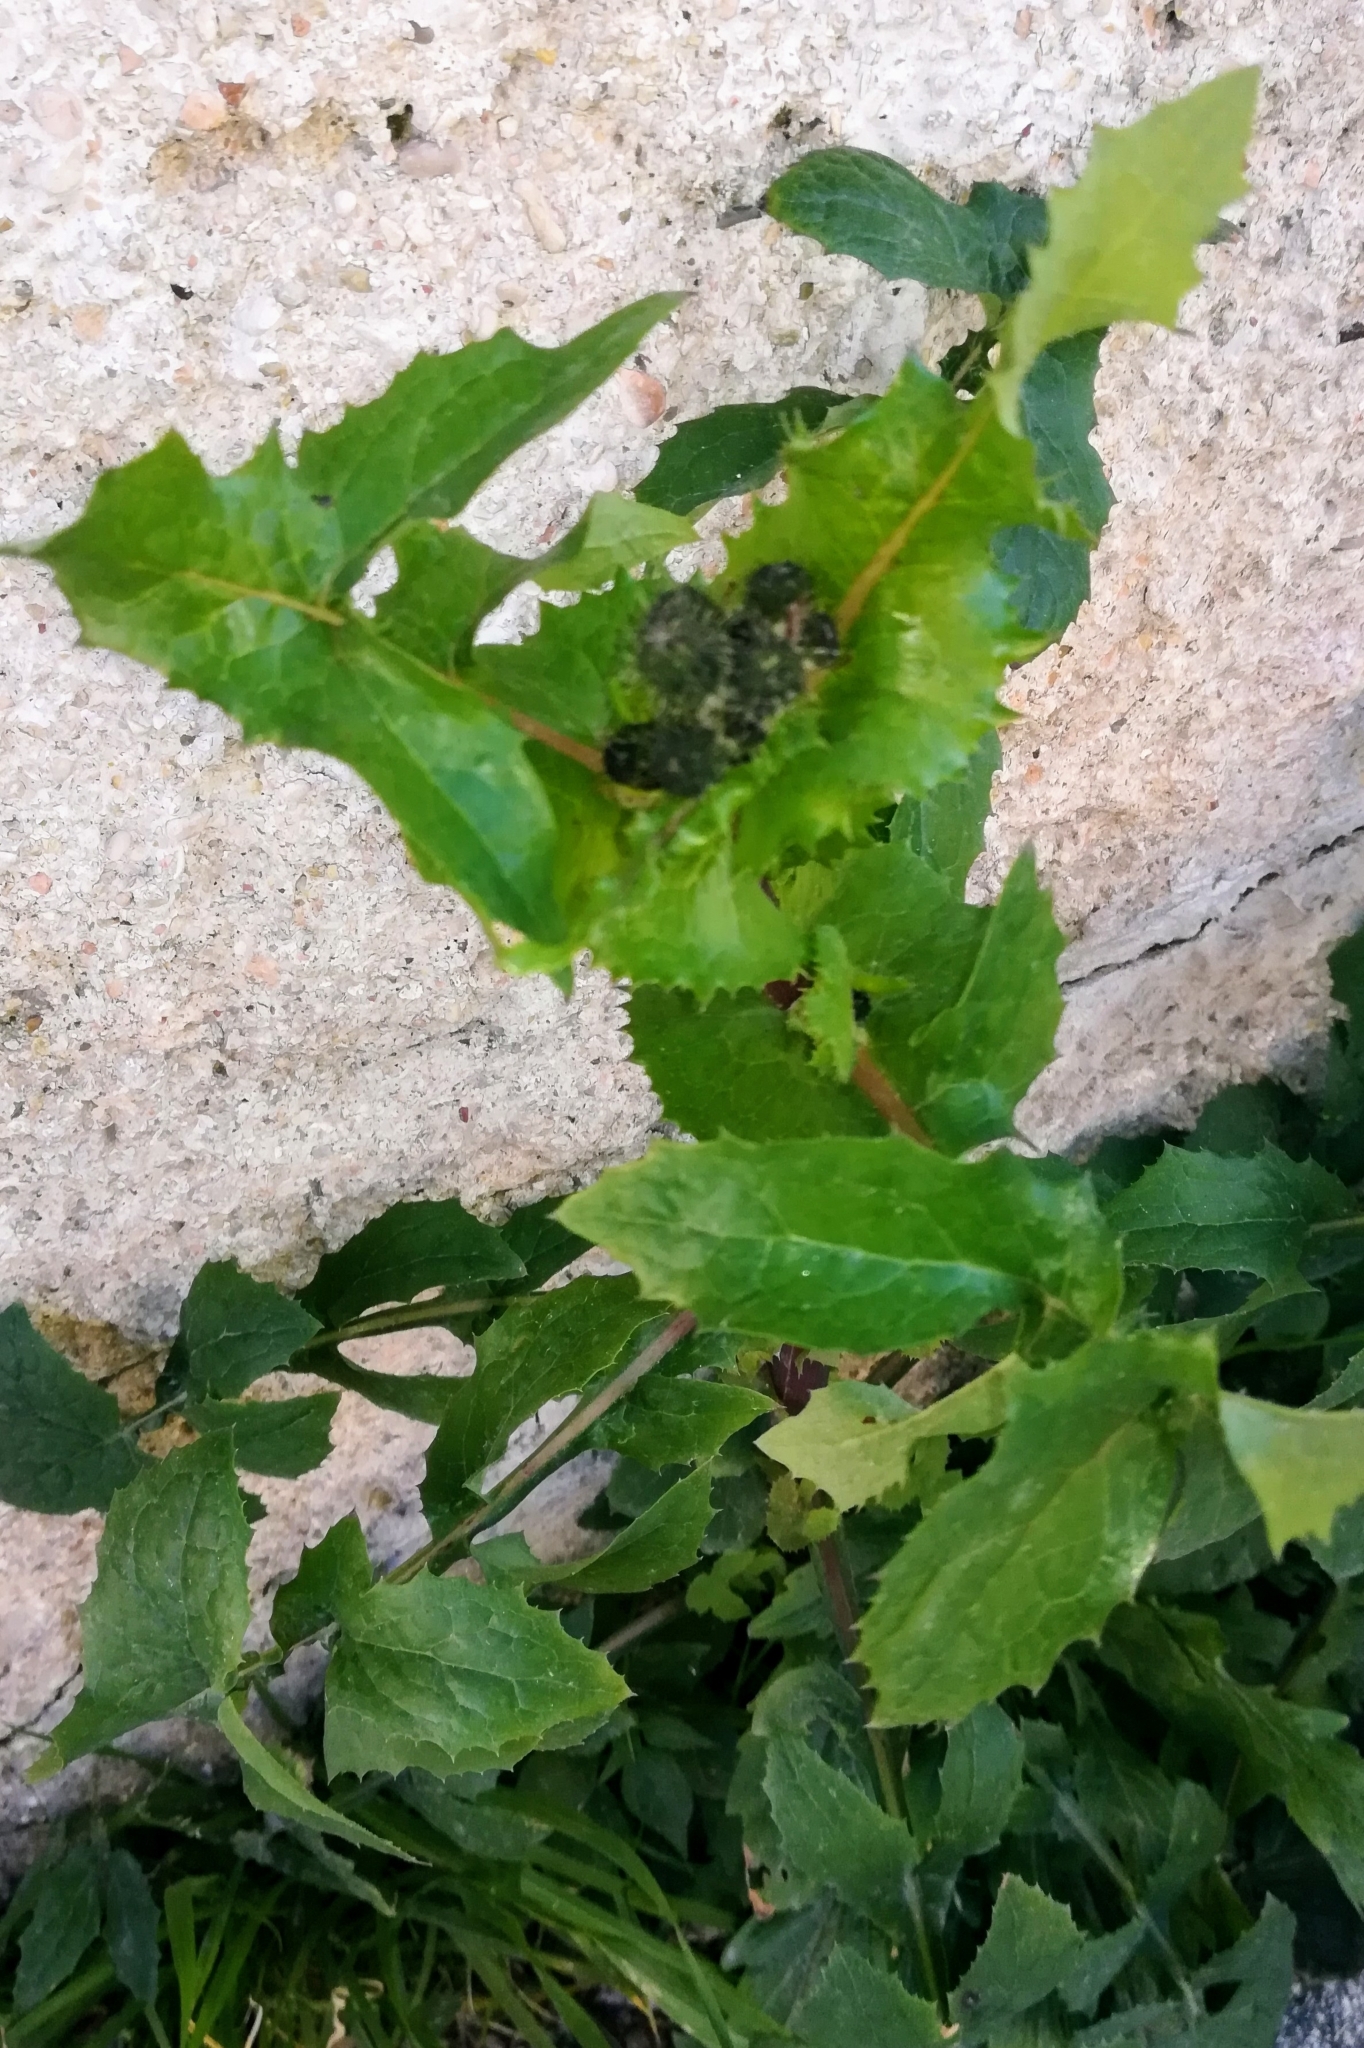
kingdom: Plantae
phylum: Tracheophyta
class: Magnoliopsida
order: Asterales
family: Asteraceae
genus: Sonchus
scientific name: Sonchus asper
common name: Prickly sow-thistle
